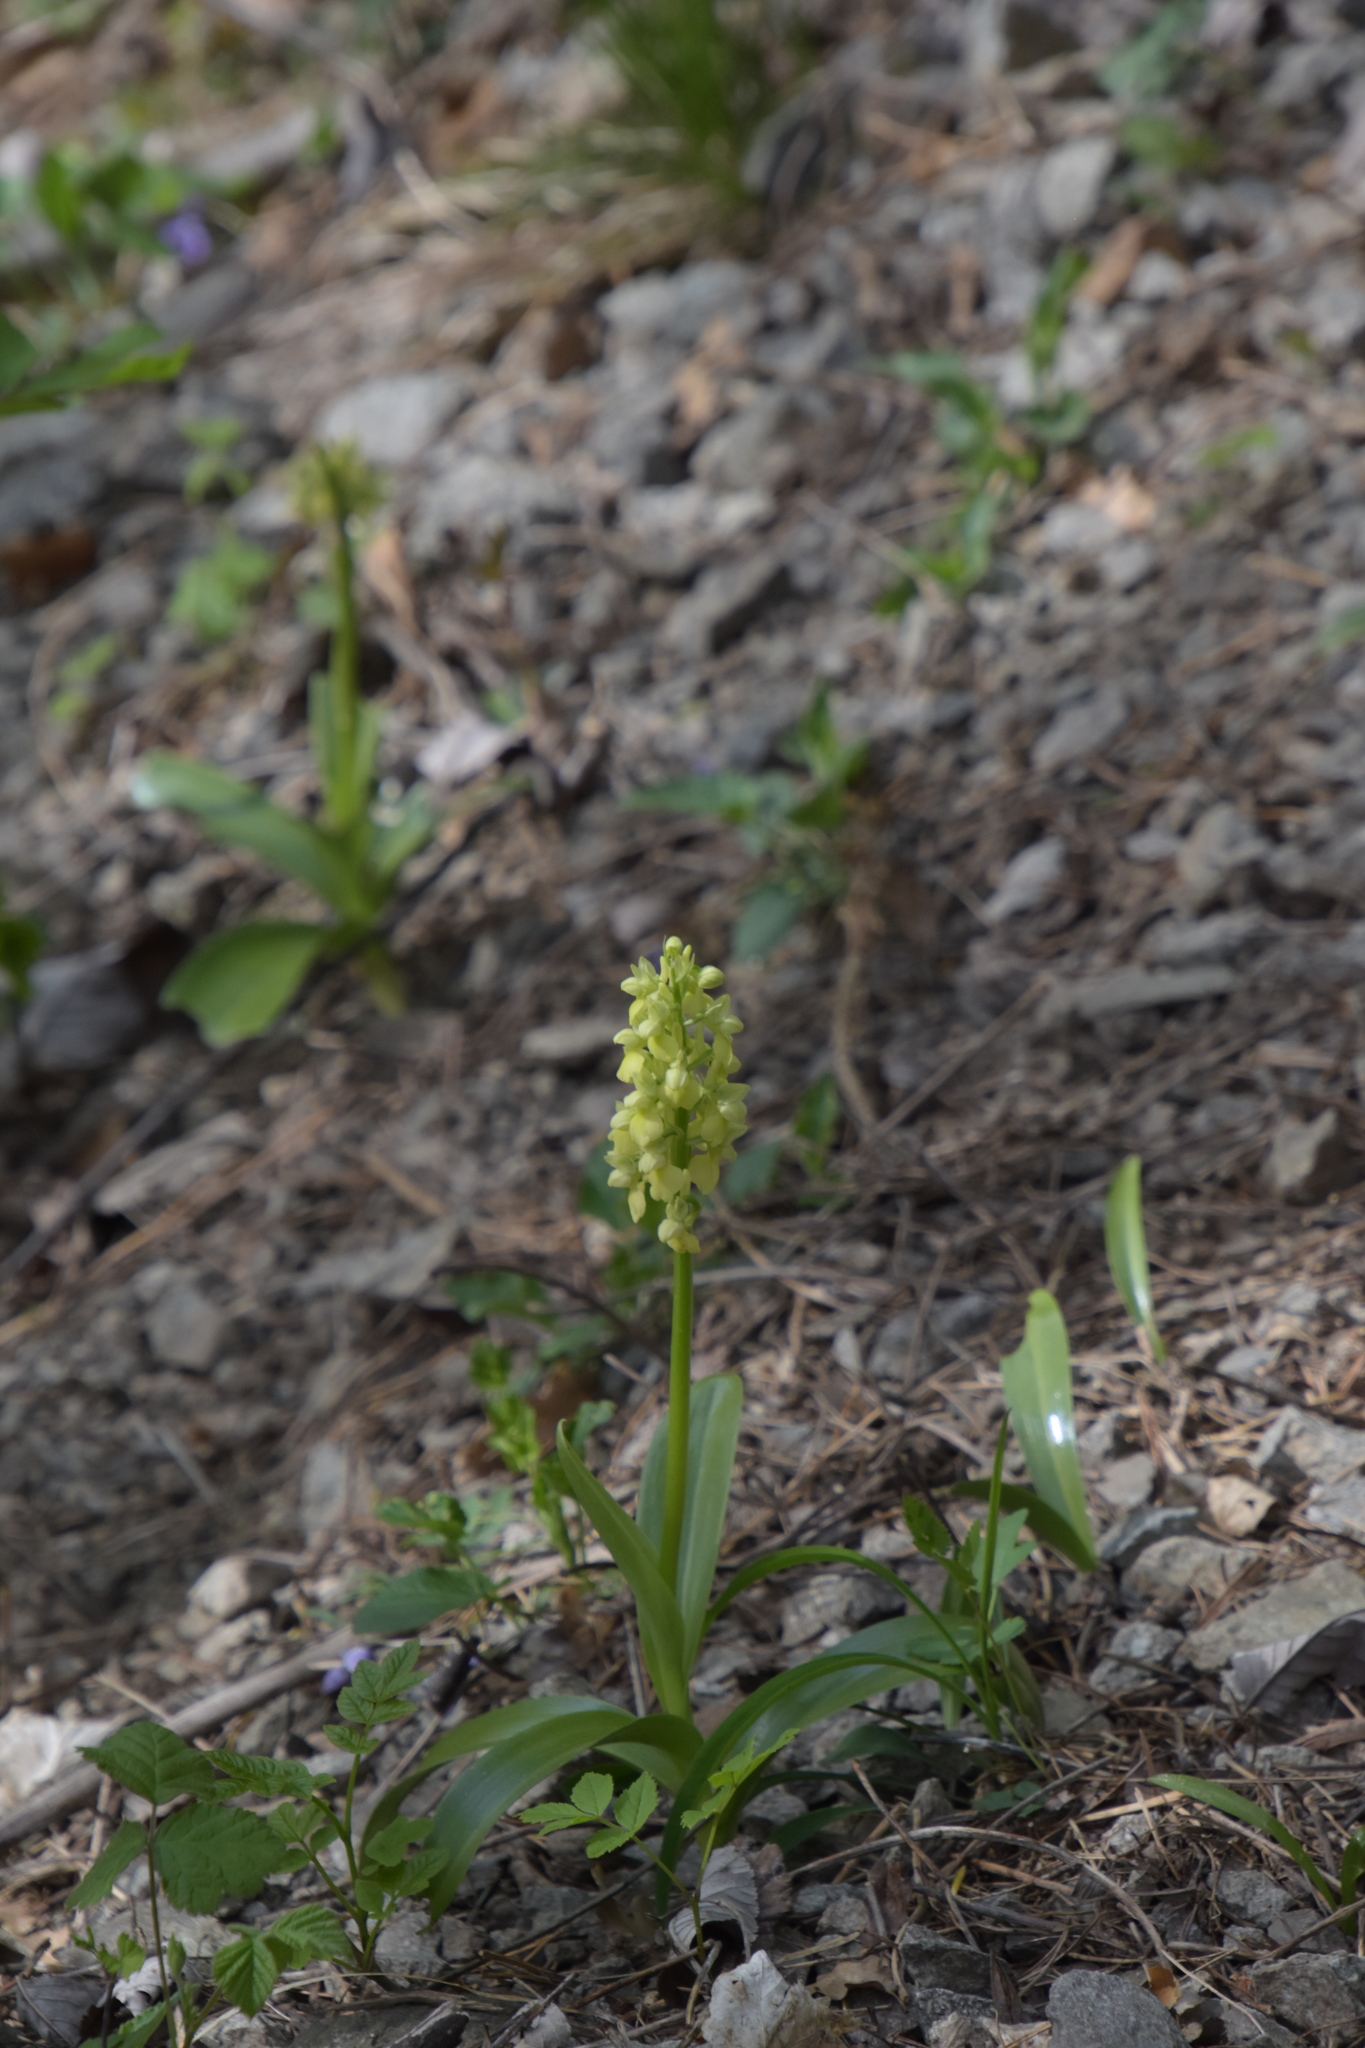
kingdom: Plantae
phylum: Tracheophyta
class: Liliopsida
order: Asparagales
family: Orchidaceae
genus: Orchis
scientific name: Orchis pallens
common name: Pale-flowered orchid
